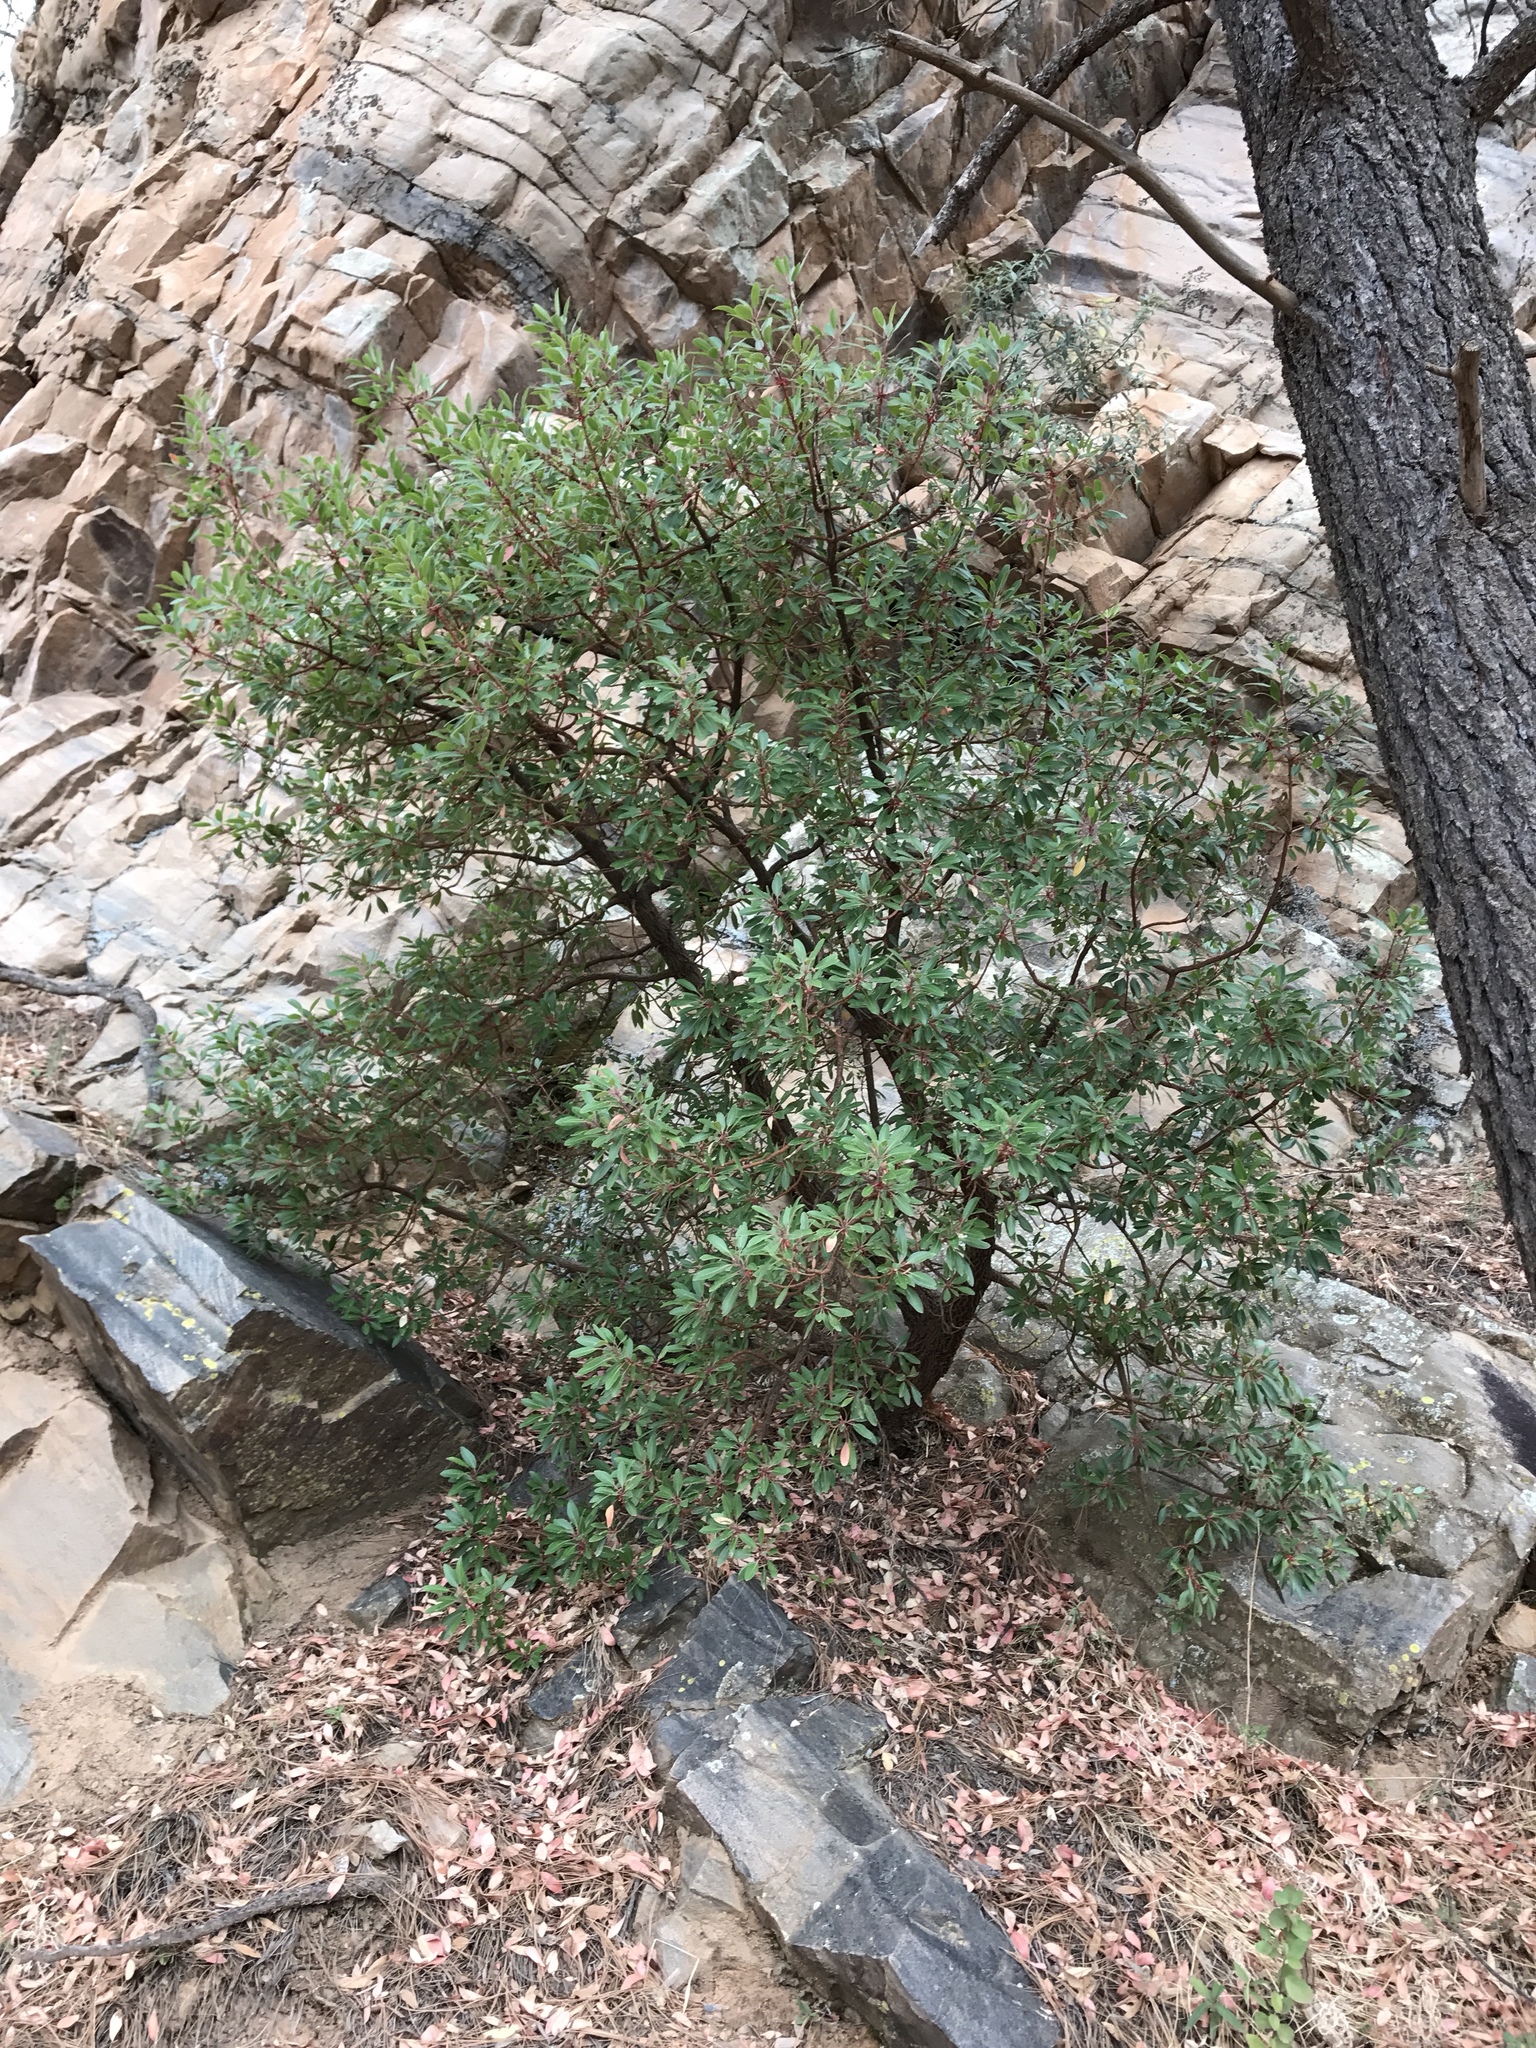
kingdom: Plantae
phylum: Tracheophyta
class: Magnoliopsida
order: Ericales
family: Ericaceae
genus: Arbutus
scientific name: Arbutus arizonica
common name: Arizona madrone
